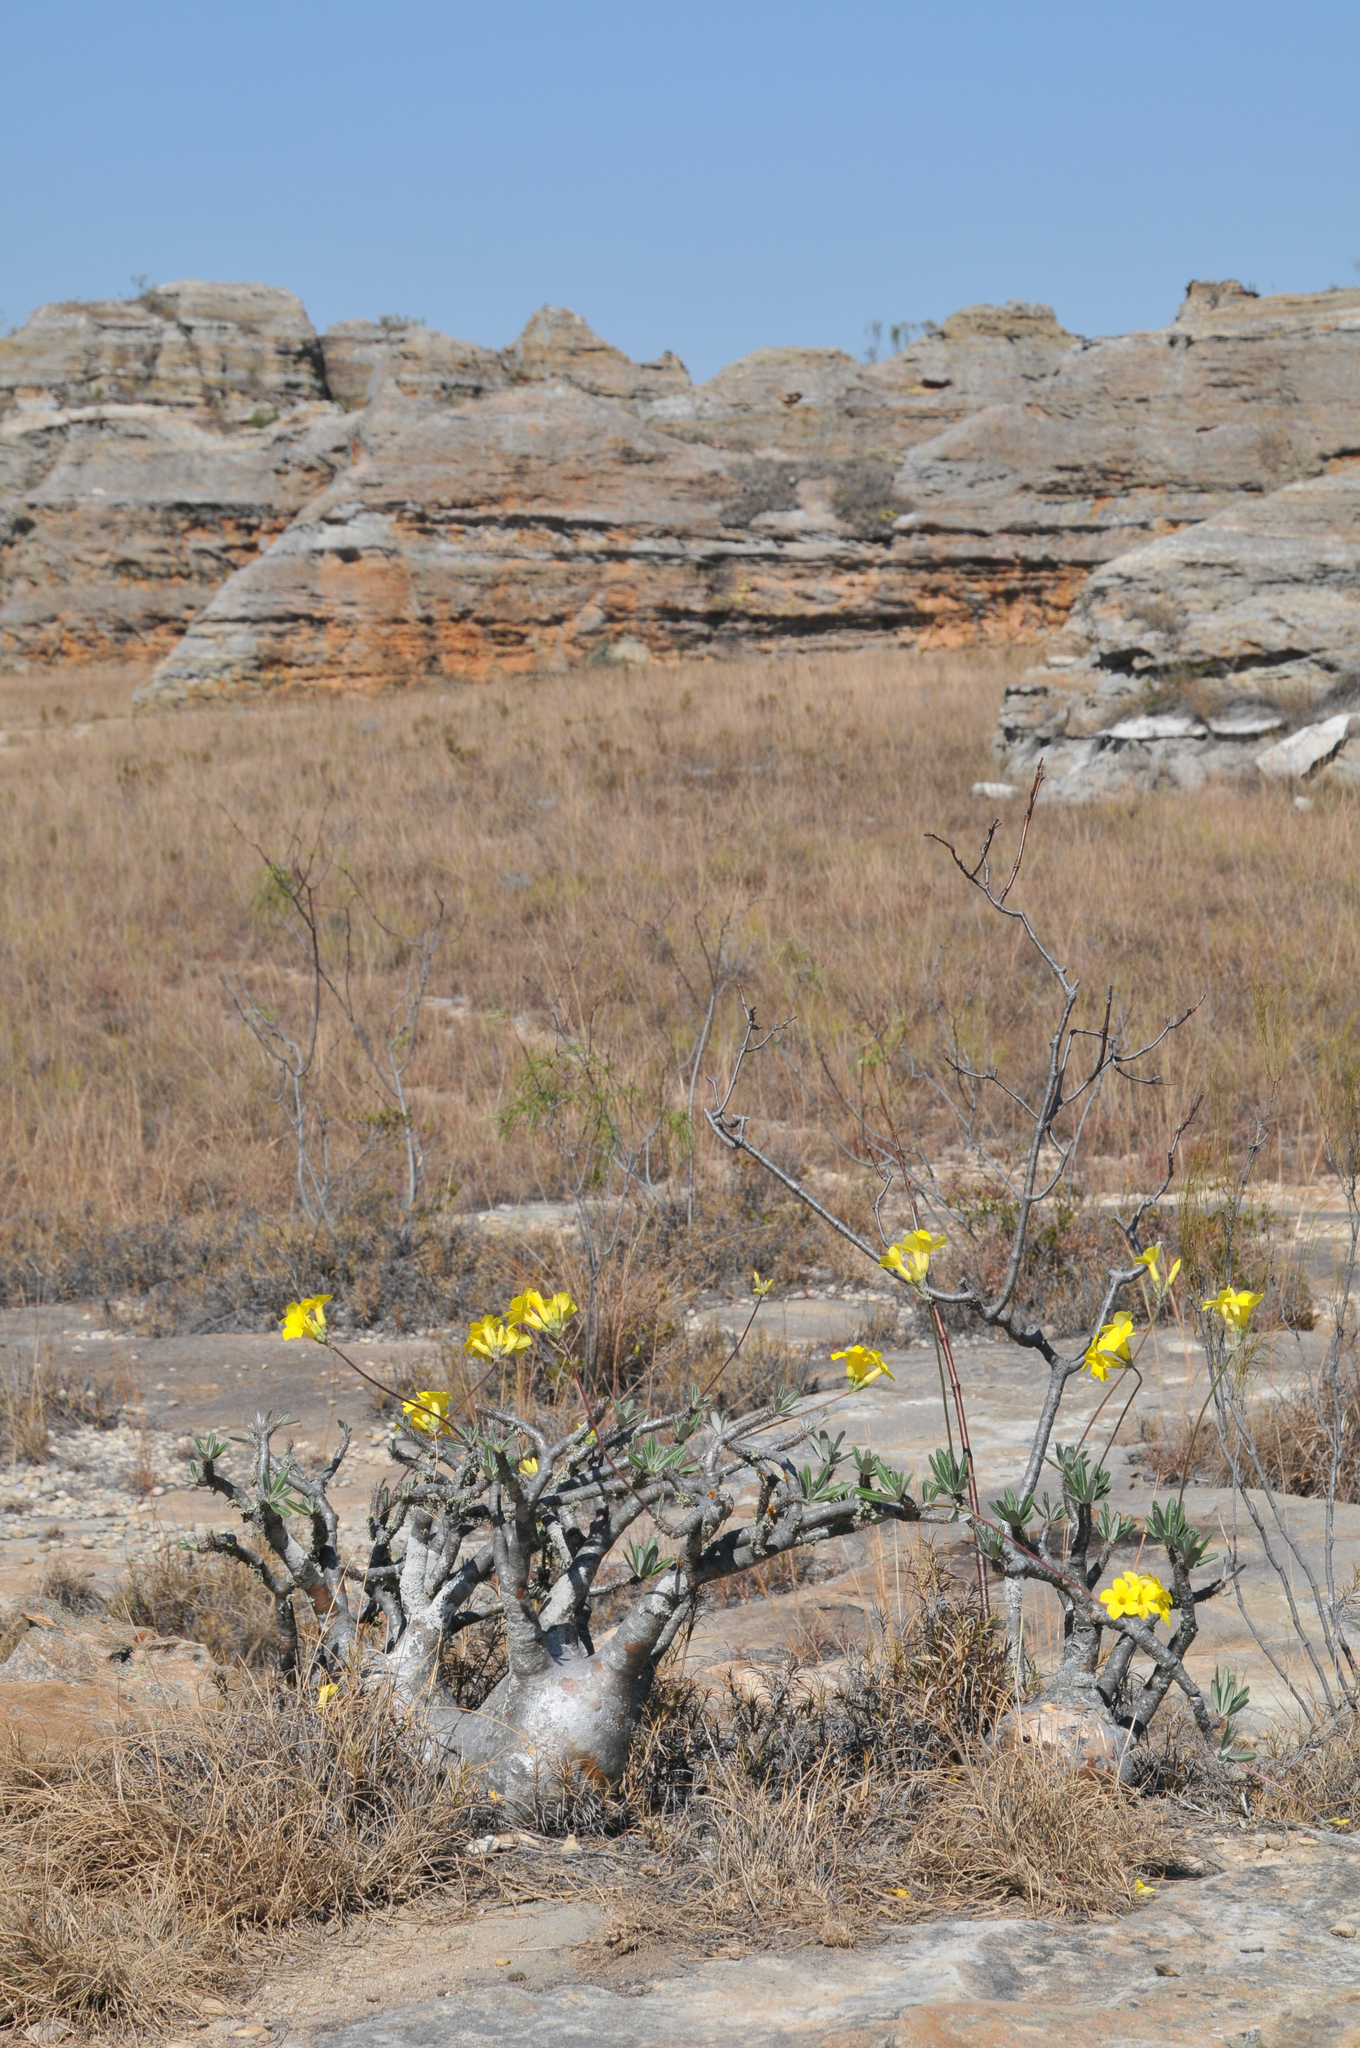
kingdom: Plantae
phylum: Tracheophyta
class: Magnoliopsida
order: Gentianales
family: Apocynaceae
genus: Pachypodium
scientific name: Pachypodium gracilius
